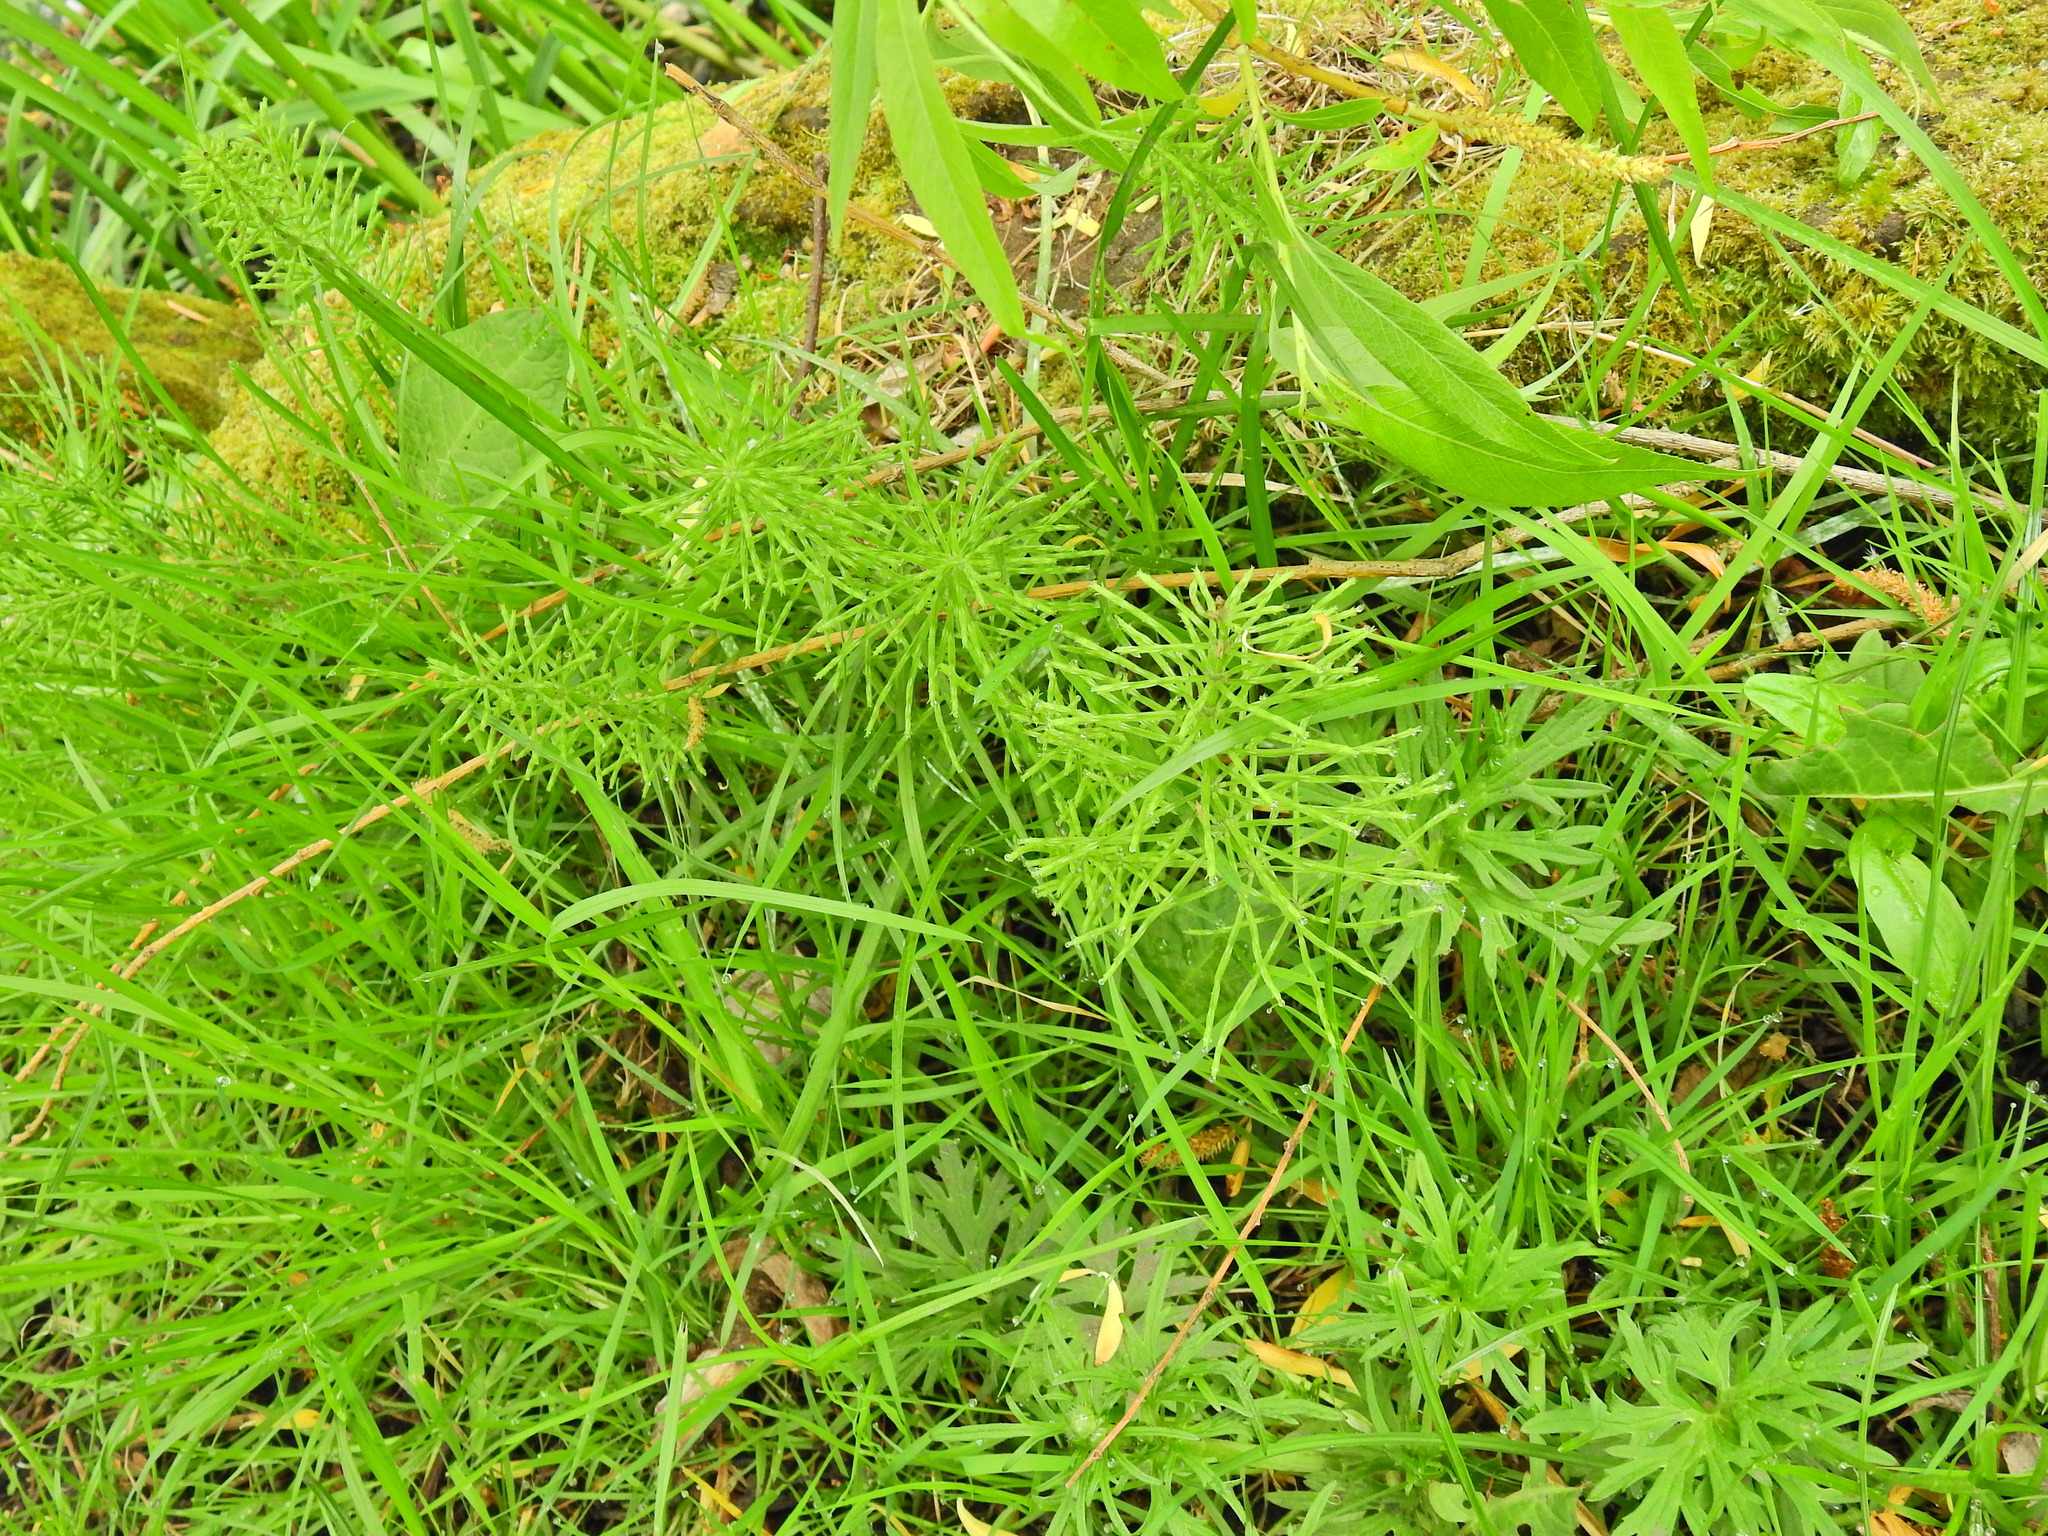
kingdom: Plantae
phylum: Tracheophyta
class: Polypodiopsida
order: Equisetales
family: Equisetaceae
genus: Equisetum
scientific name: Equisetum arvense
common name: Field horsetail
